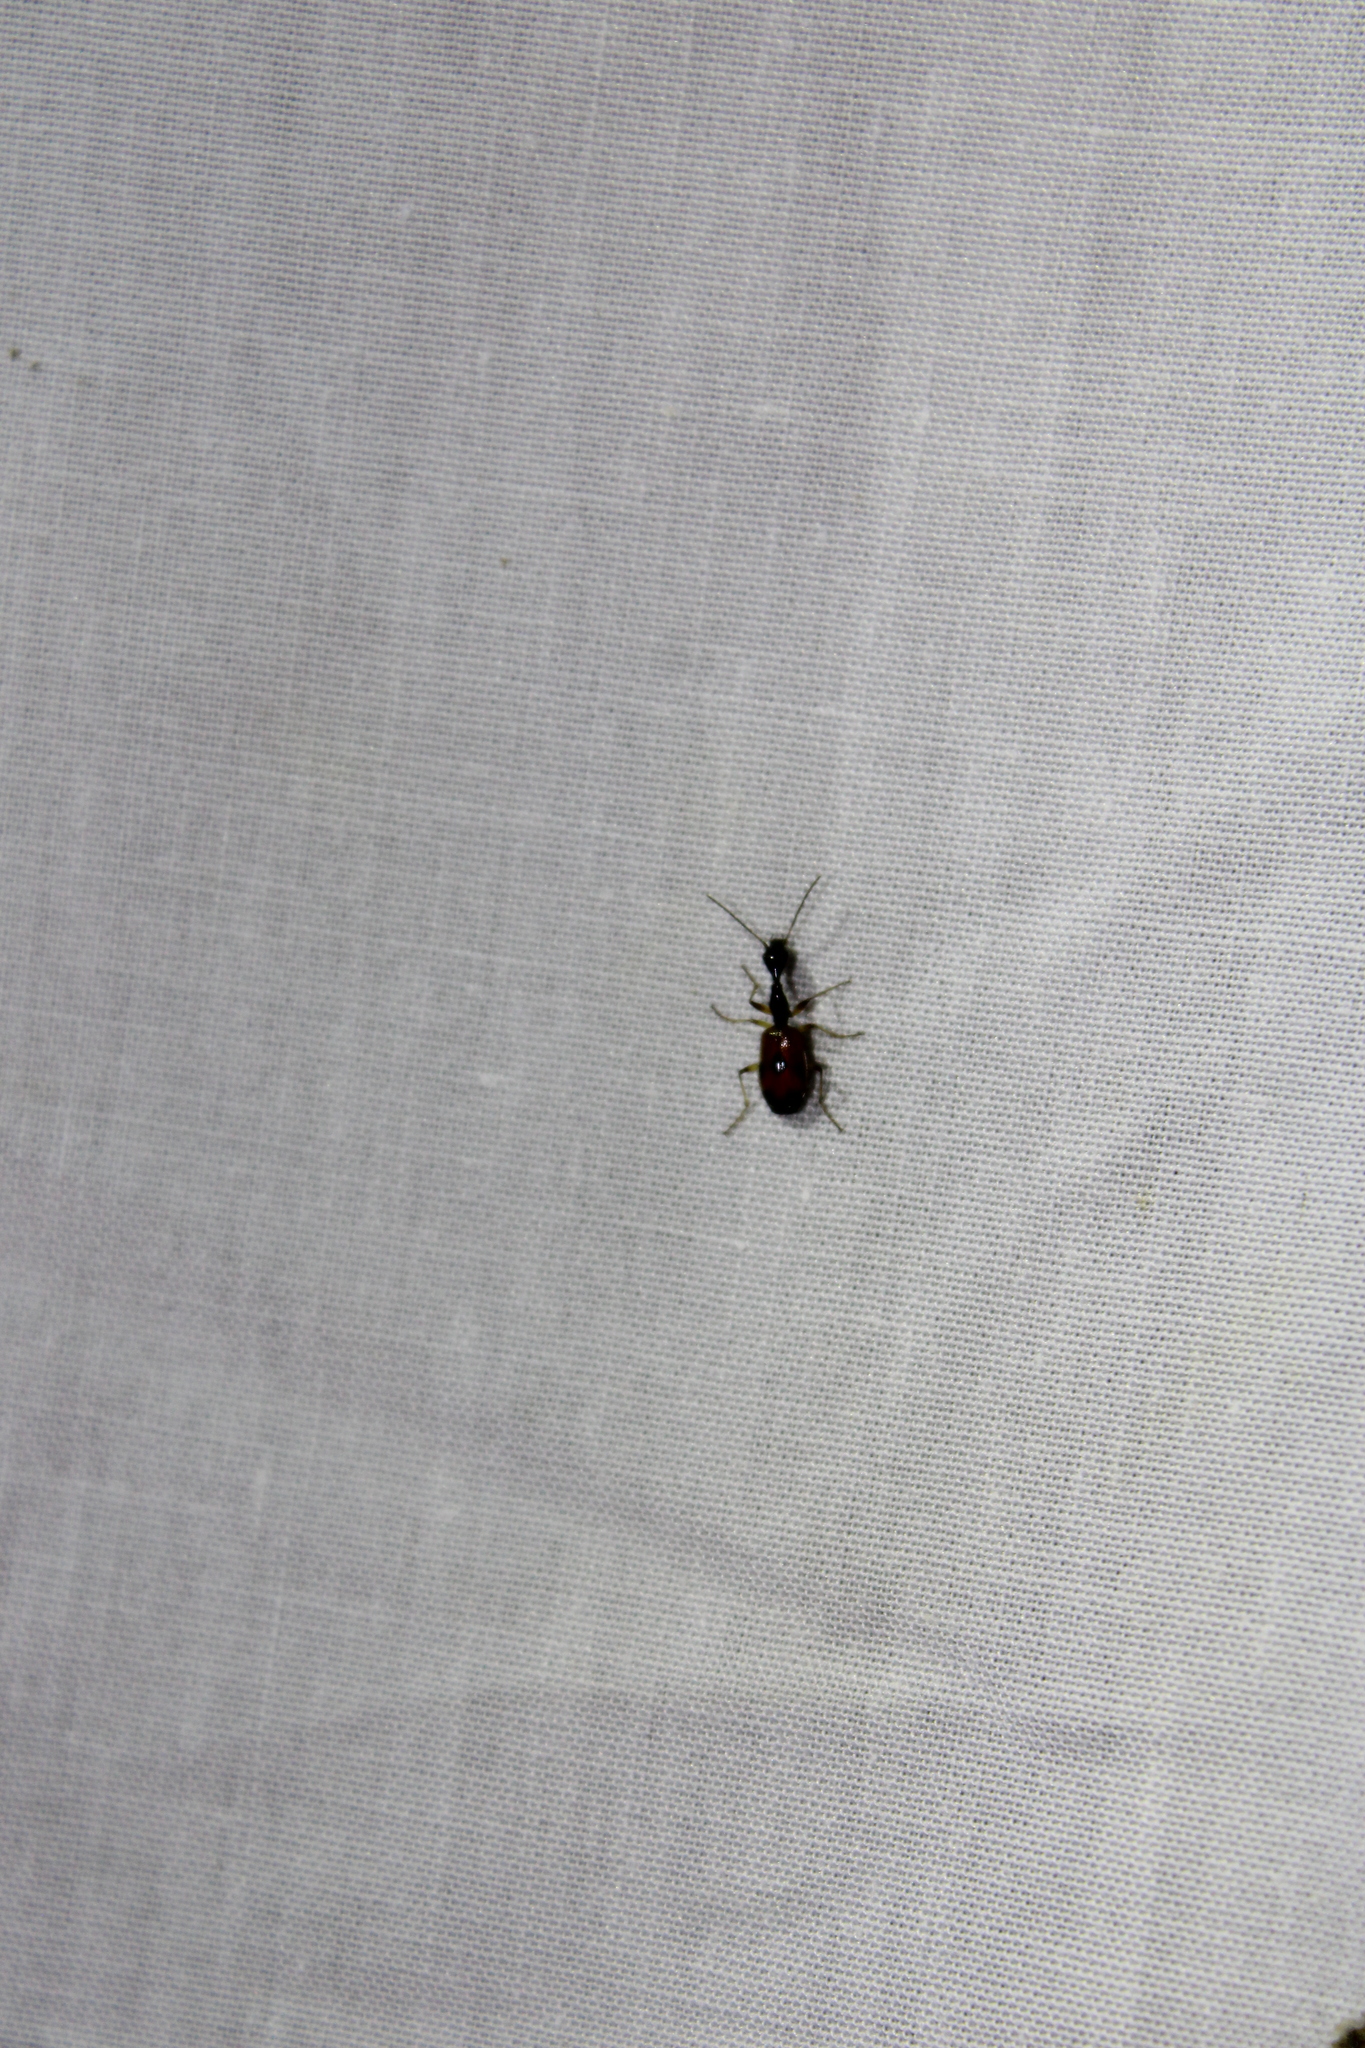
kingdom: Animalia
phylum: Arthropoda
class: Insecta
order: Coleoptera
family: Carabidae
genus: Colliuris
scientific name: Colliuris pensylvanica
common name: Long-necked ground beetle
